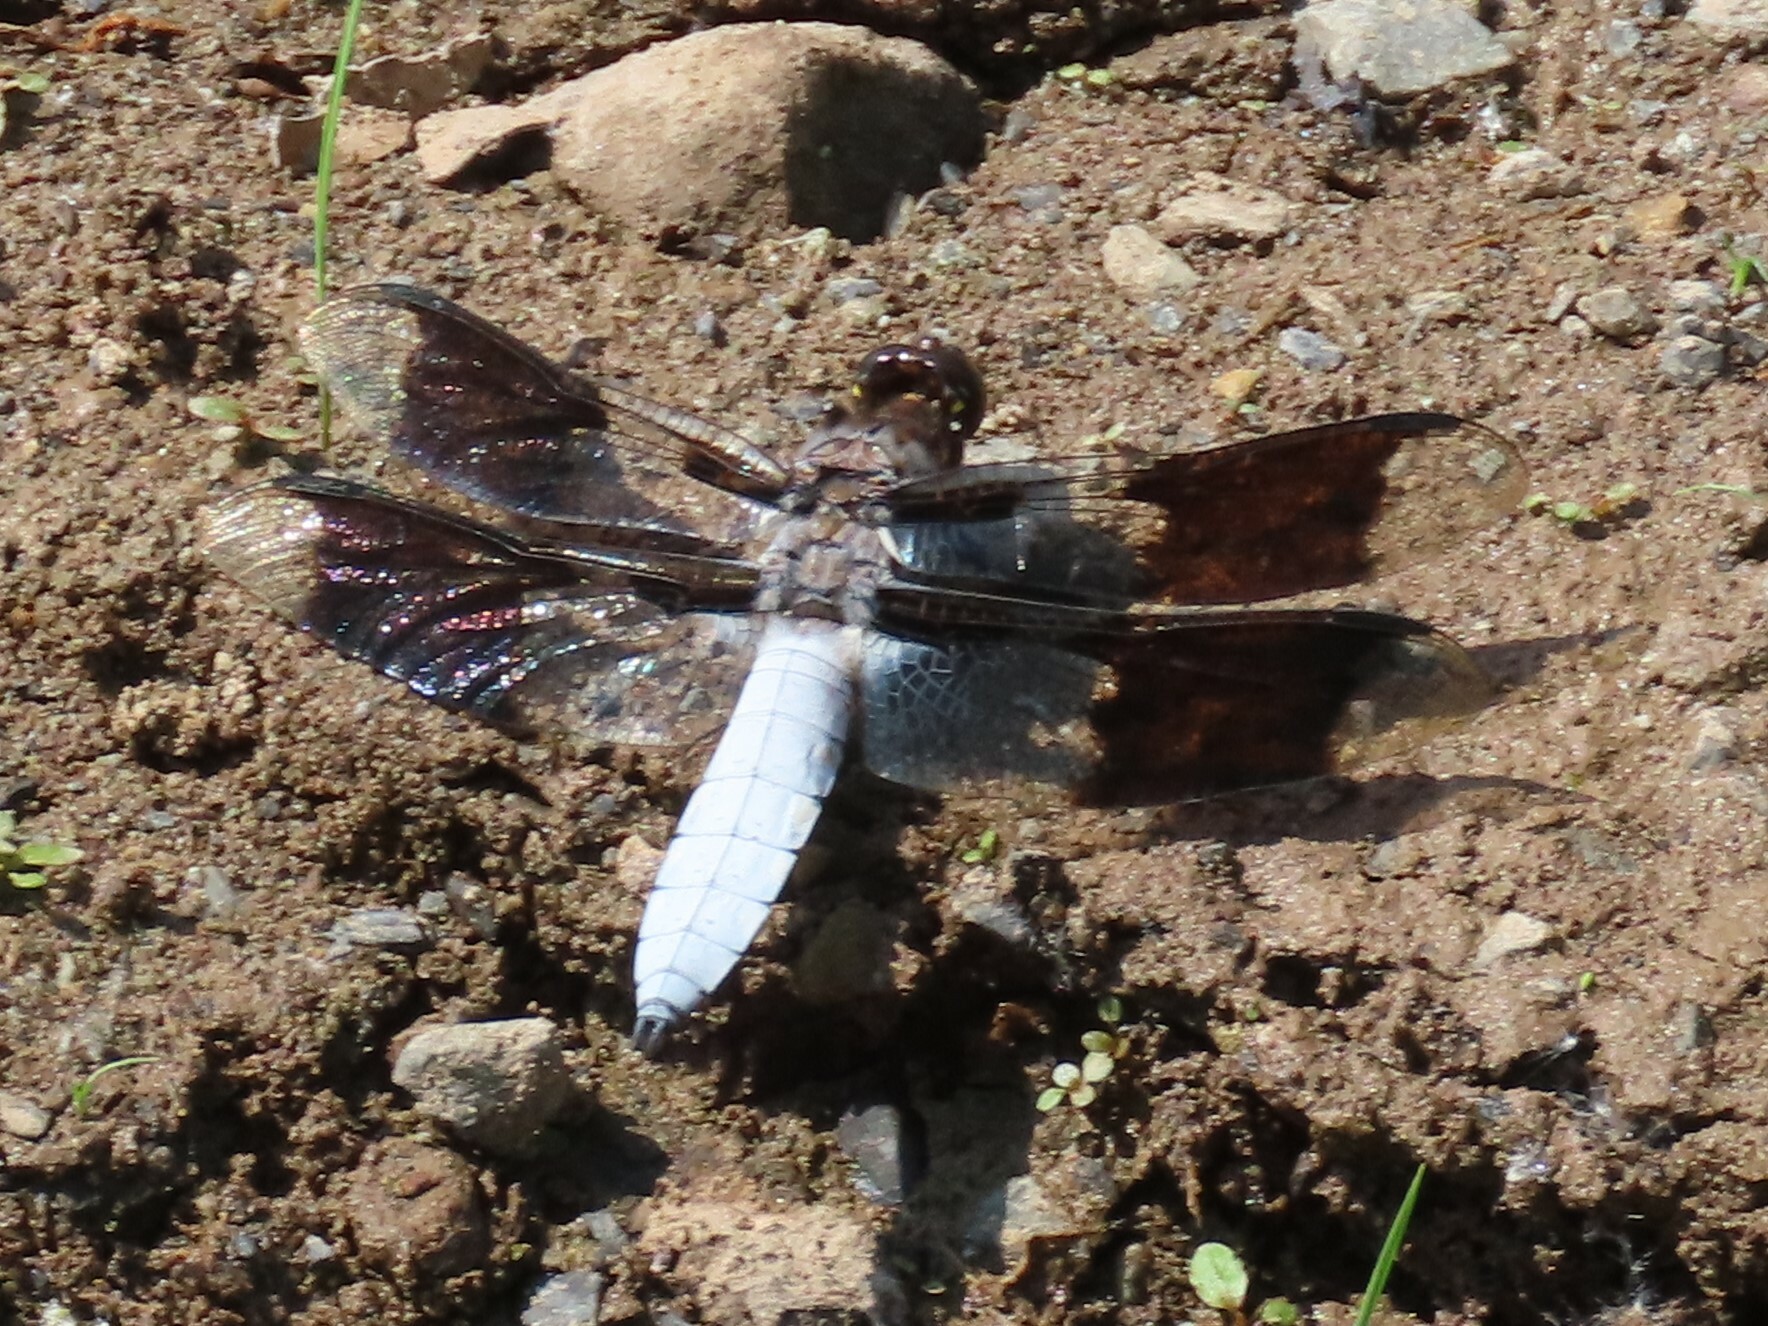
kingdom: Animalia
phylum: Arthropoda
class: Insecta
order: Odonata
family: Libellulidae
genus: Plathemis
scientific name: Plathemis lydia
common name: Common whitetail
